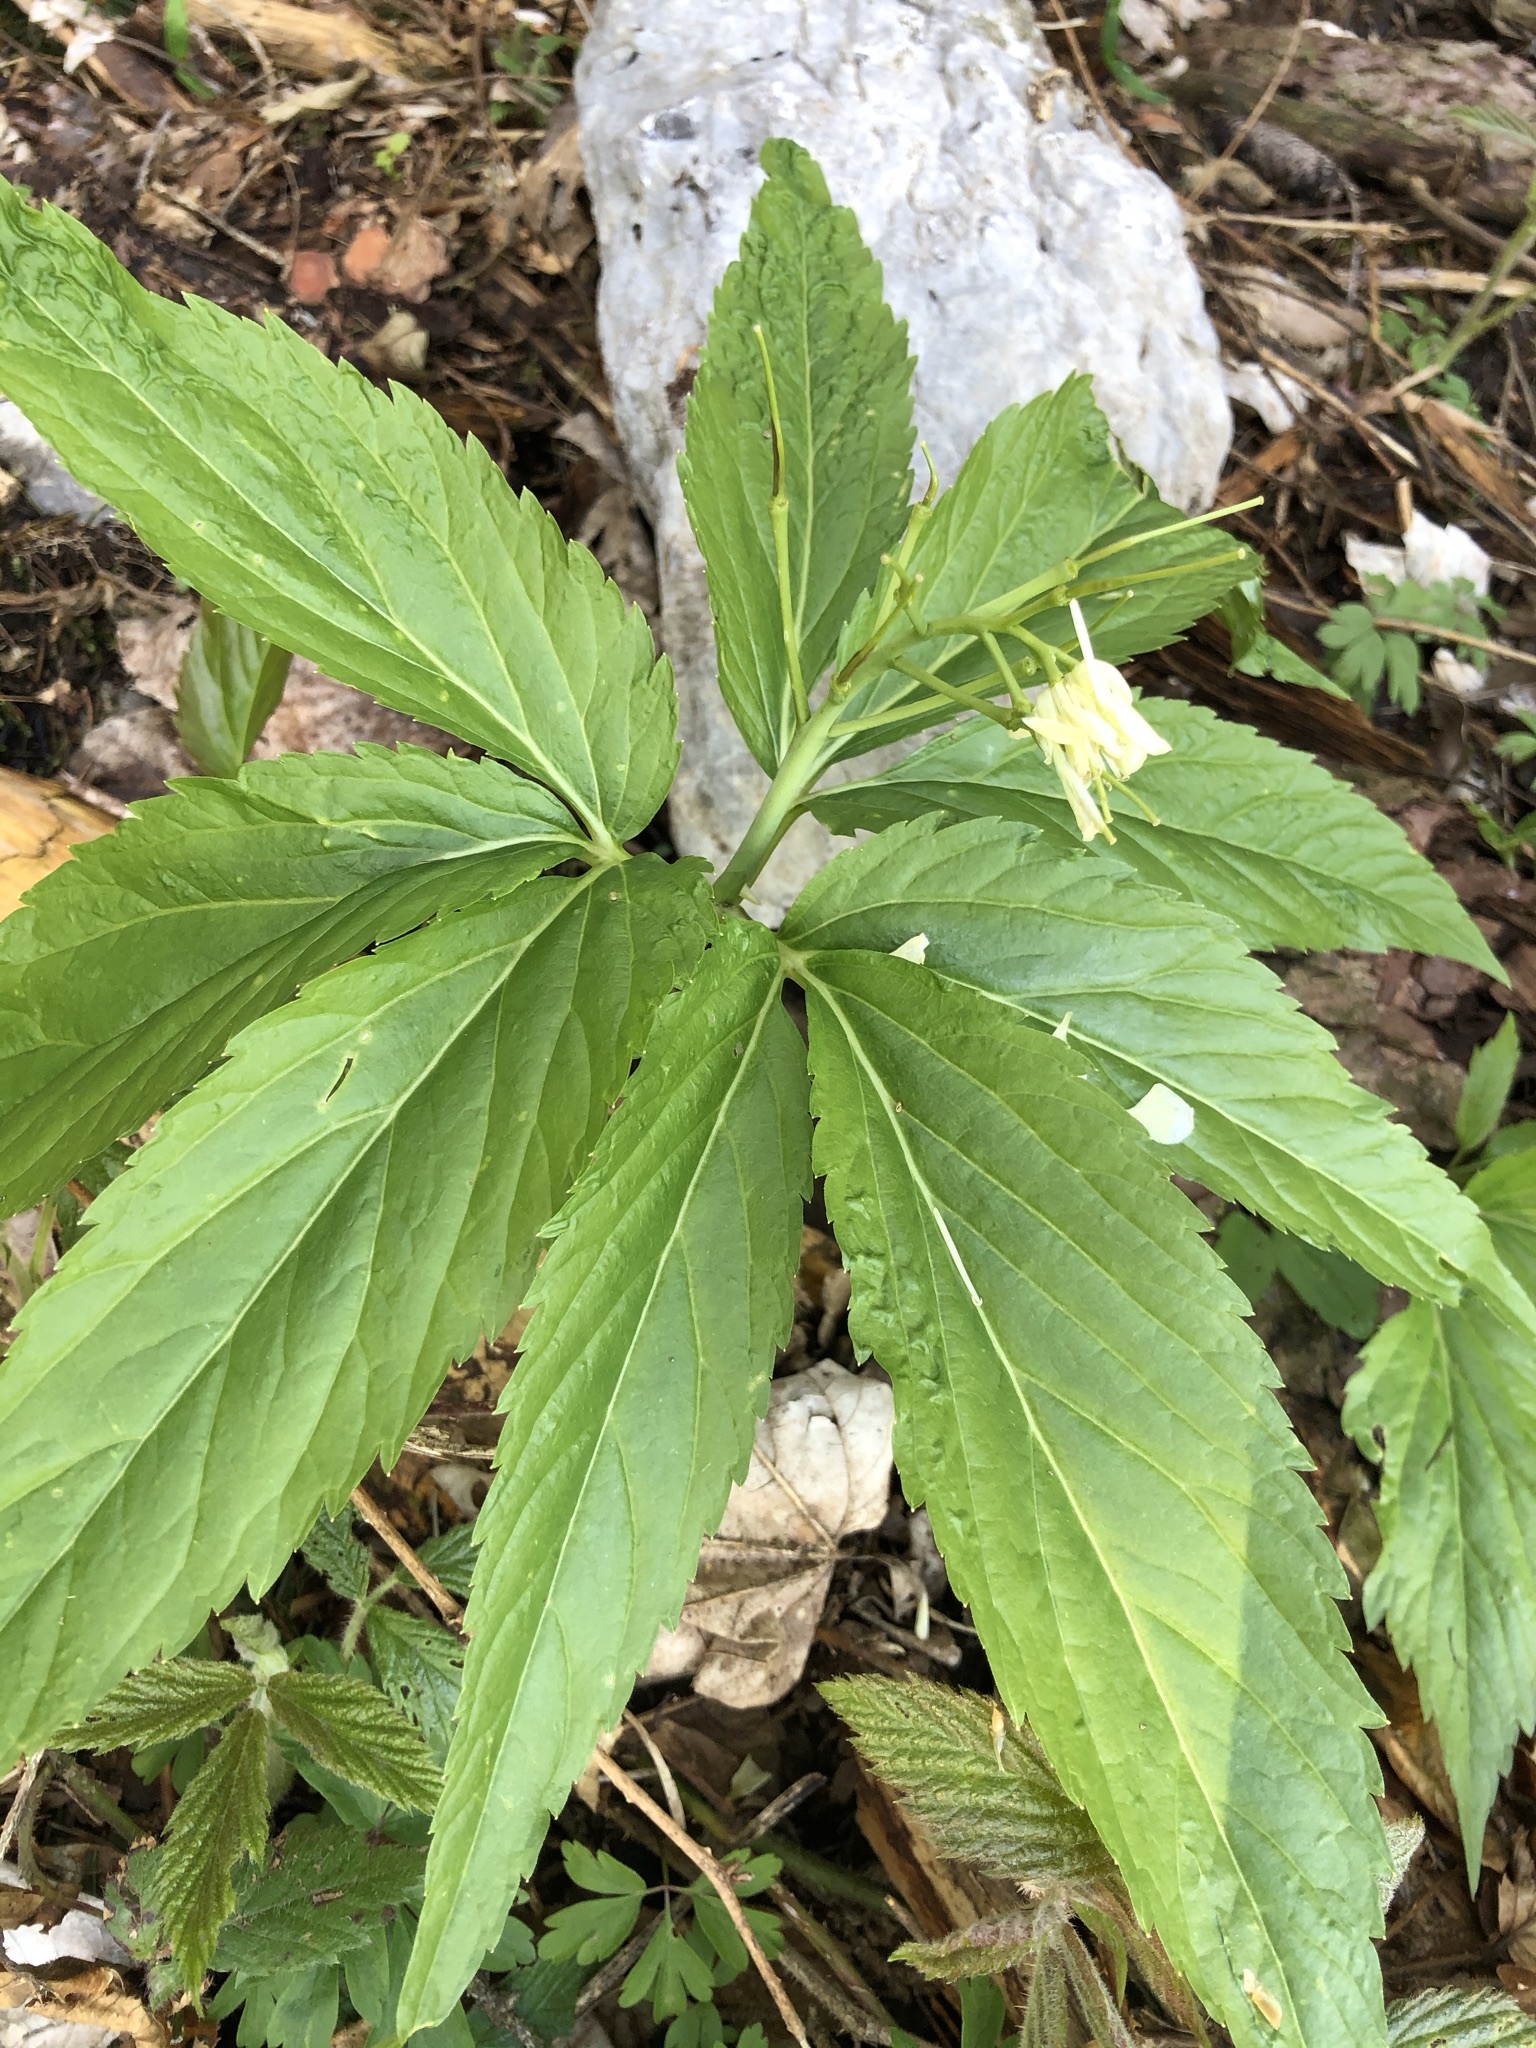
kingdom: Plantae
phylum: Tracheophyta
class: Magnoliopsida
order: Brassicales
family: Brassicaceae
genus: Cardamine
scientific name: Cardamine enneaphyllos
